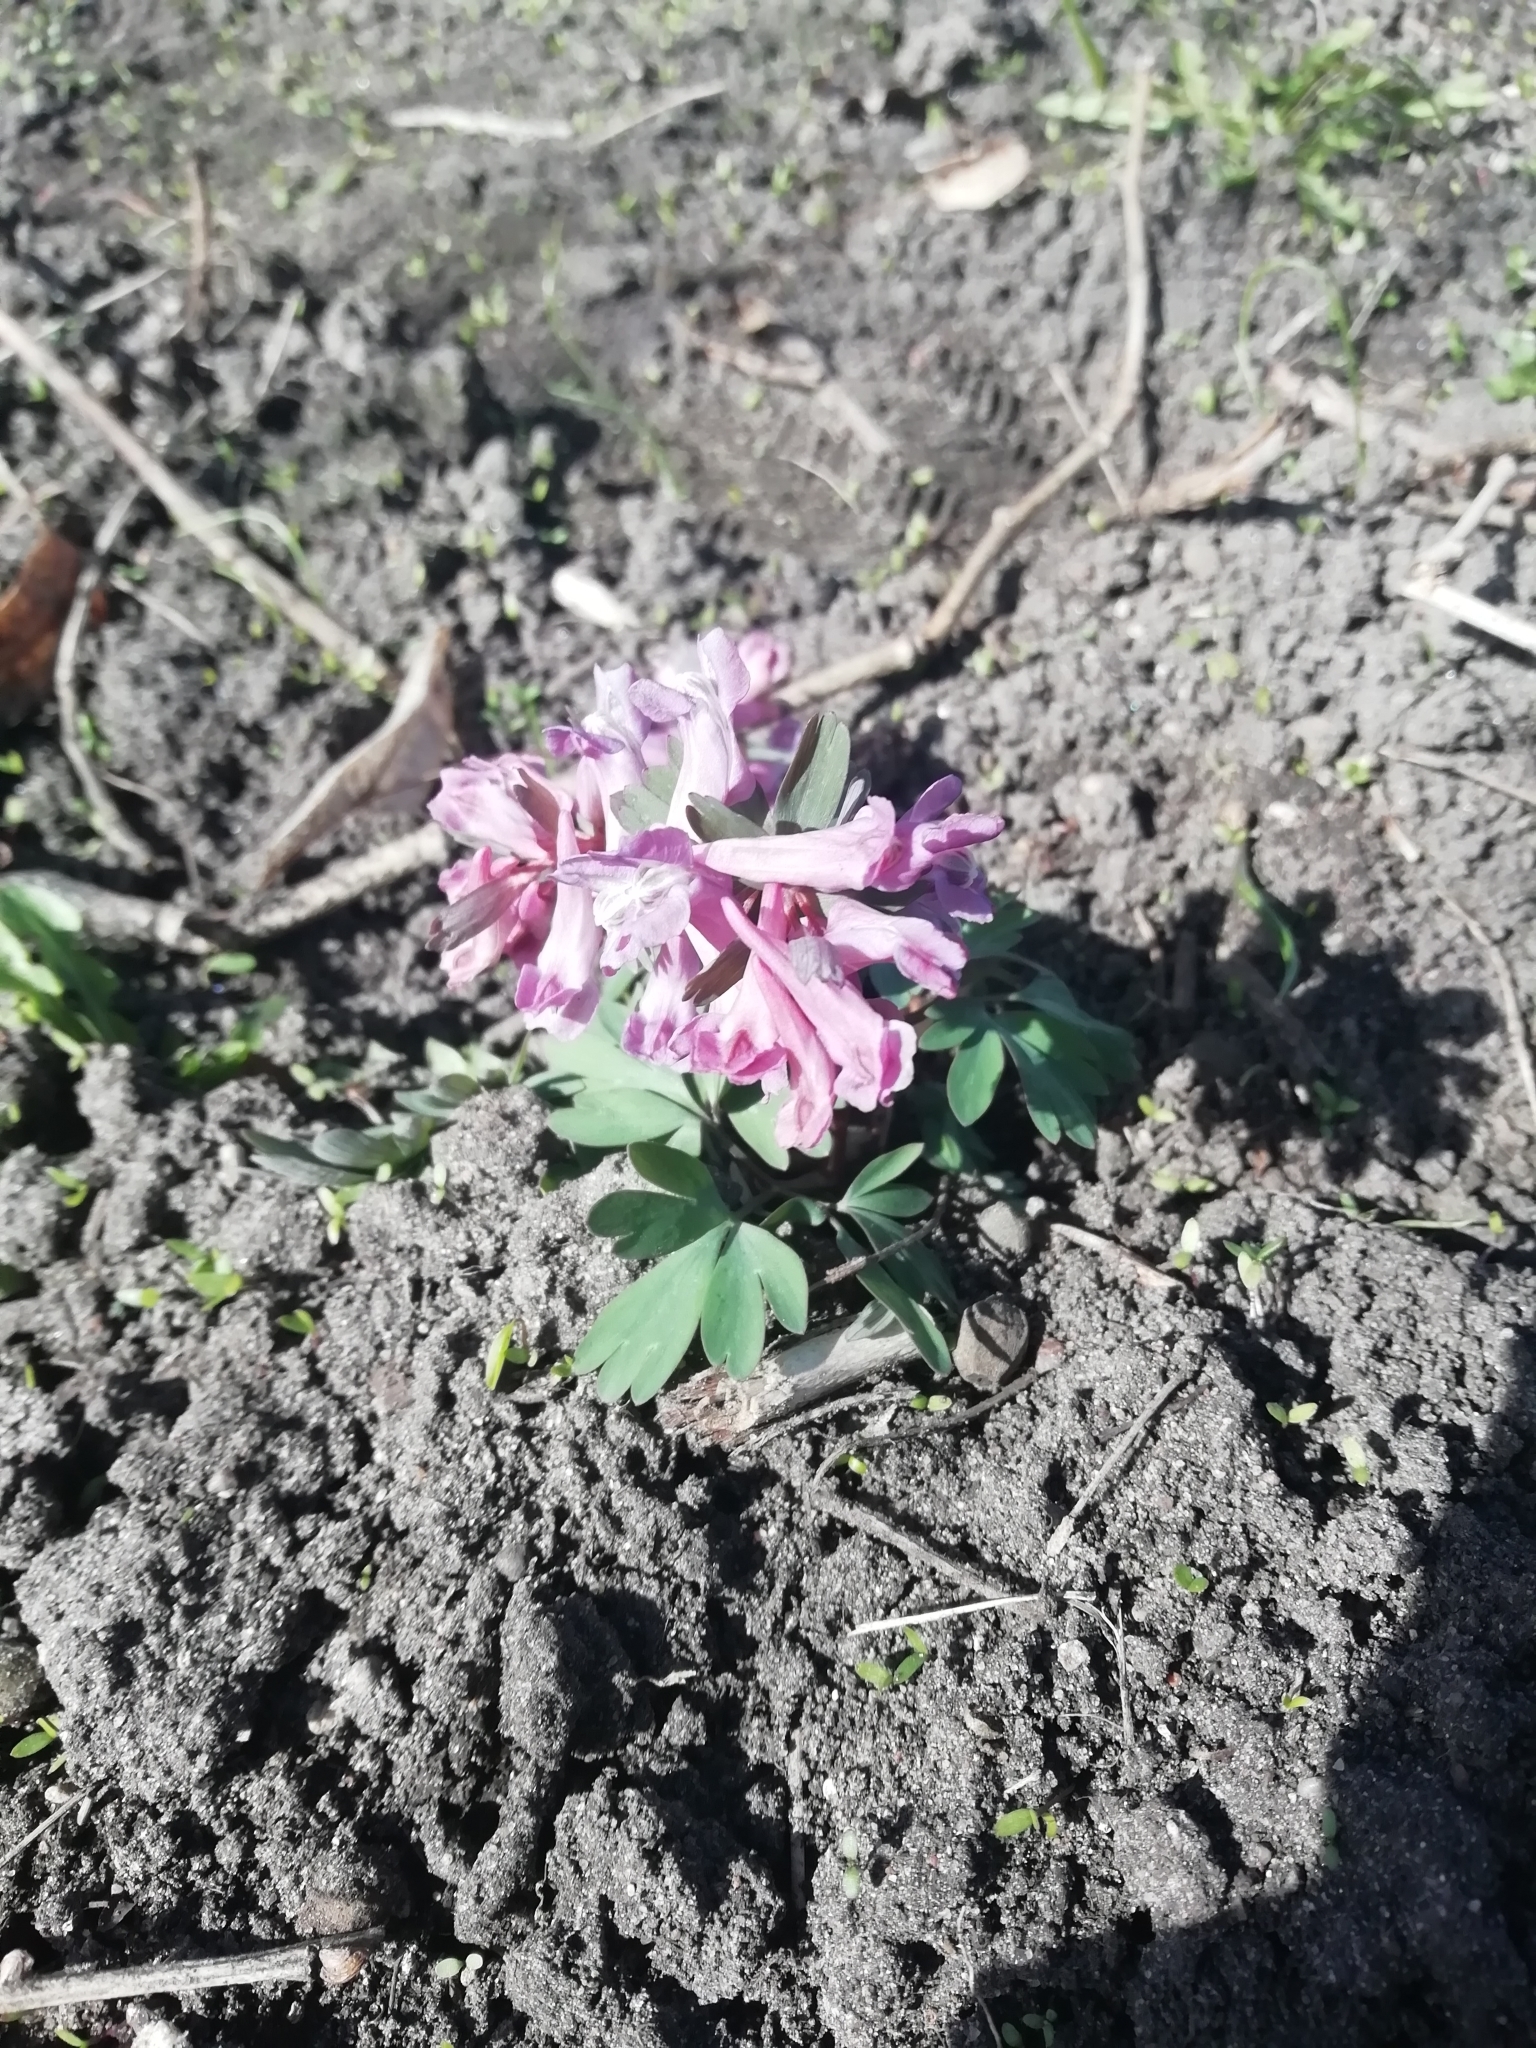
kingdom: Plantae
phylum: Tracheophyta
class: Magnoliopsida
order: Ranunculales
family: Papaveraceae
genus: Corydalis
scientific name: Corydalis solida
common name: Bird-in-a-bush
